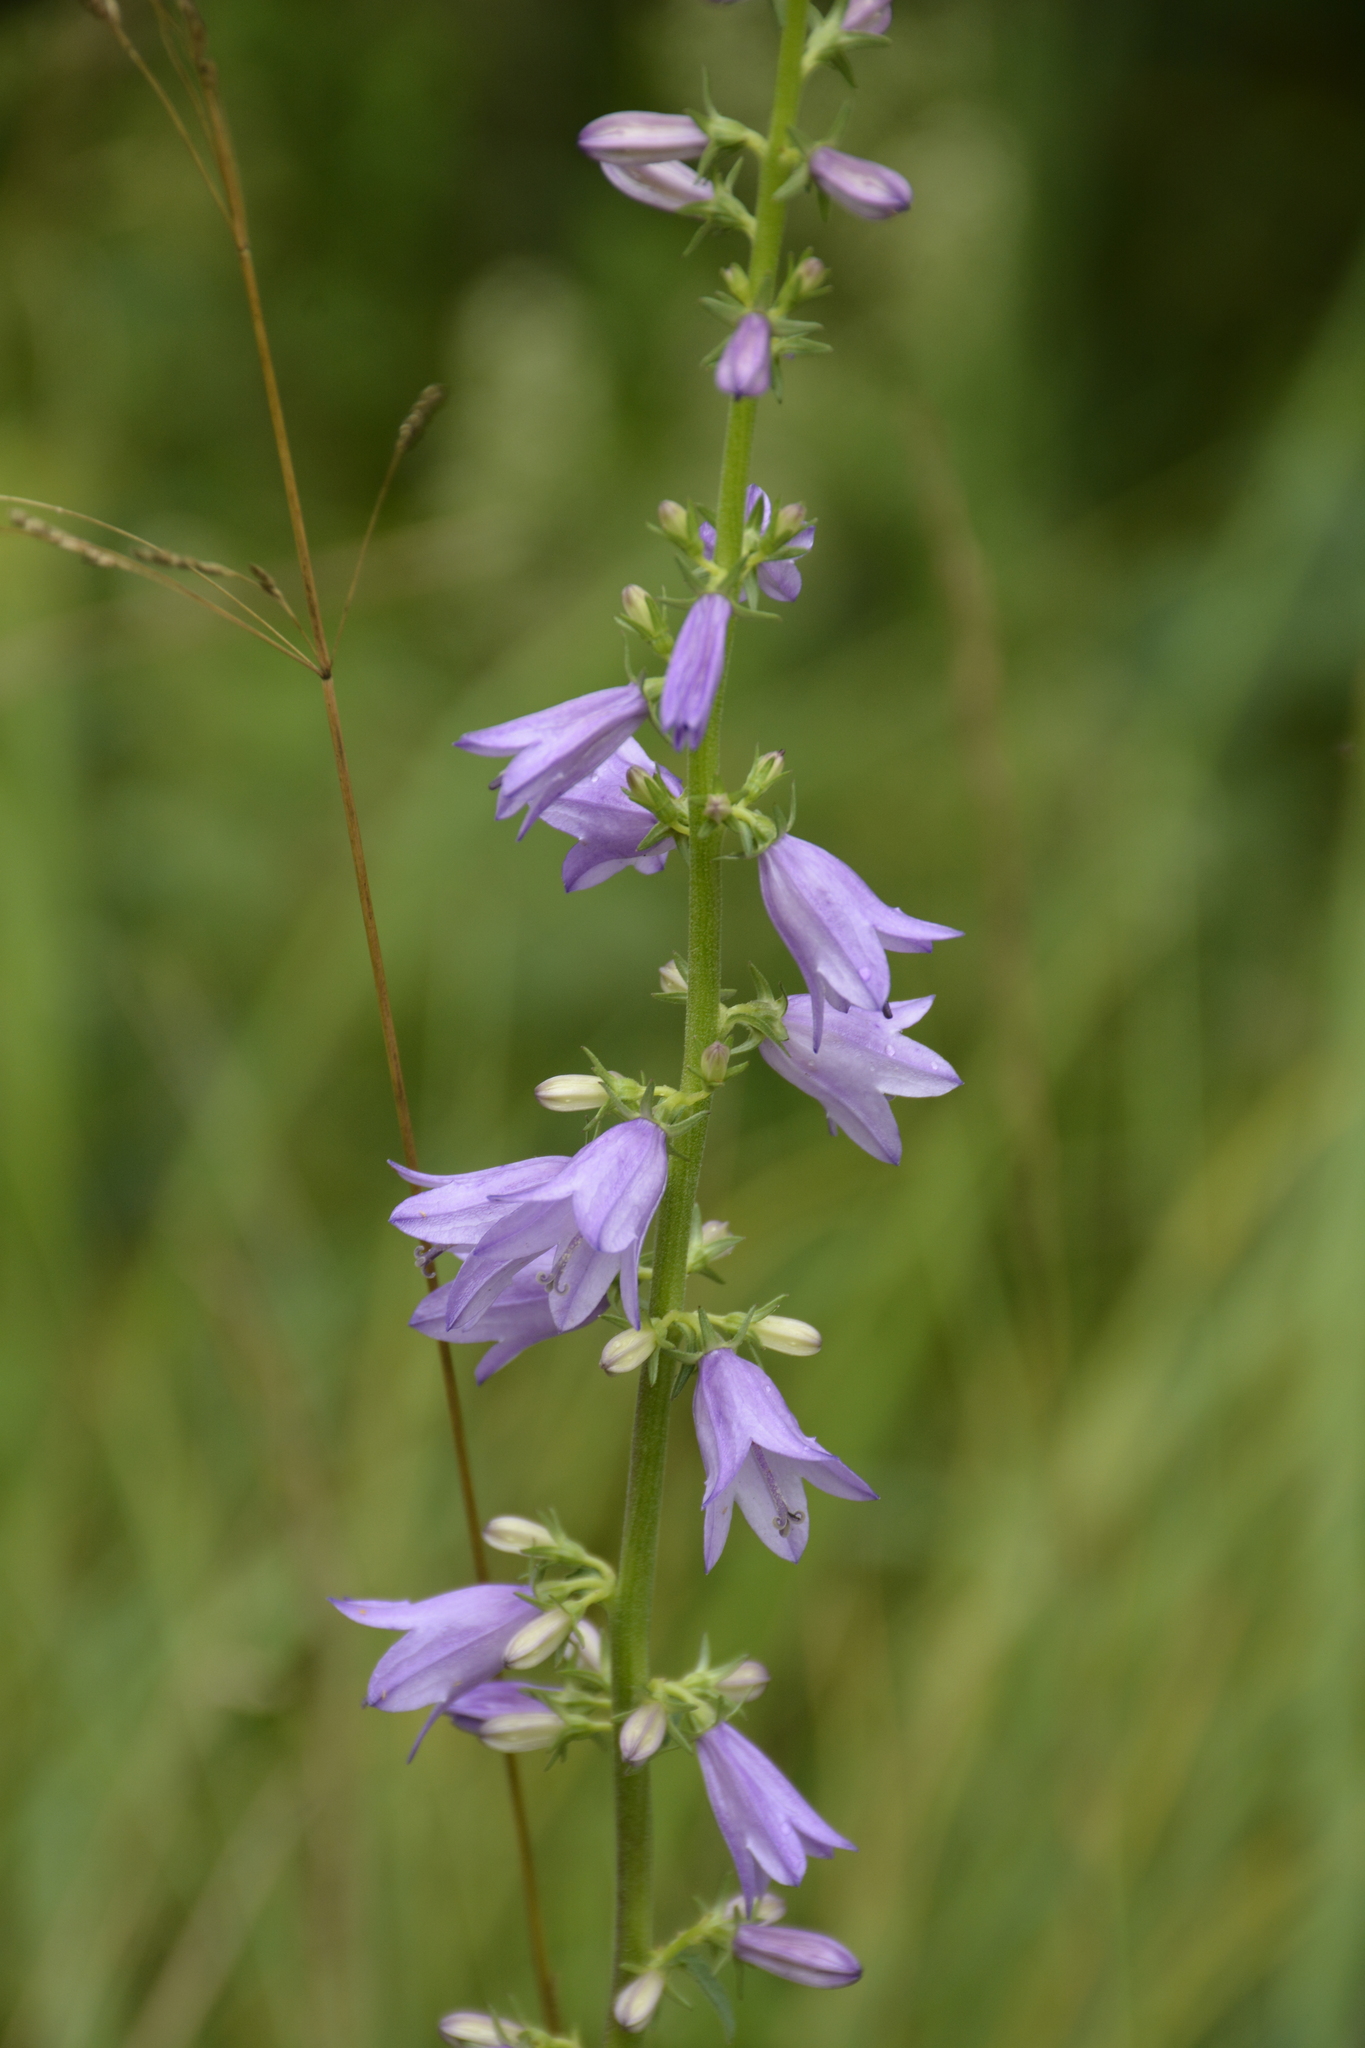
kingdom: Plantae
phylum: Tracheophyta
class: Magnoliopsida
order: Asterales
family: Campanulaceae
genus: Campanula
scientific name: Campanula bononiensis
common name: Pale bellflower
